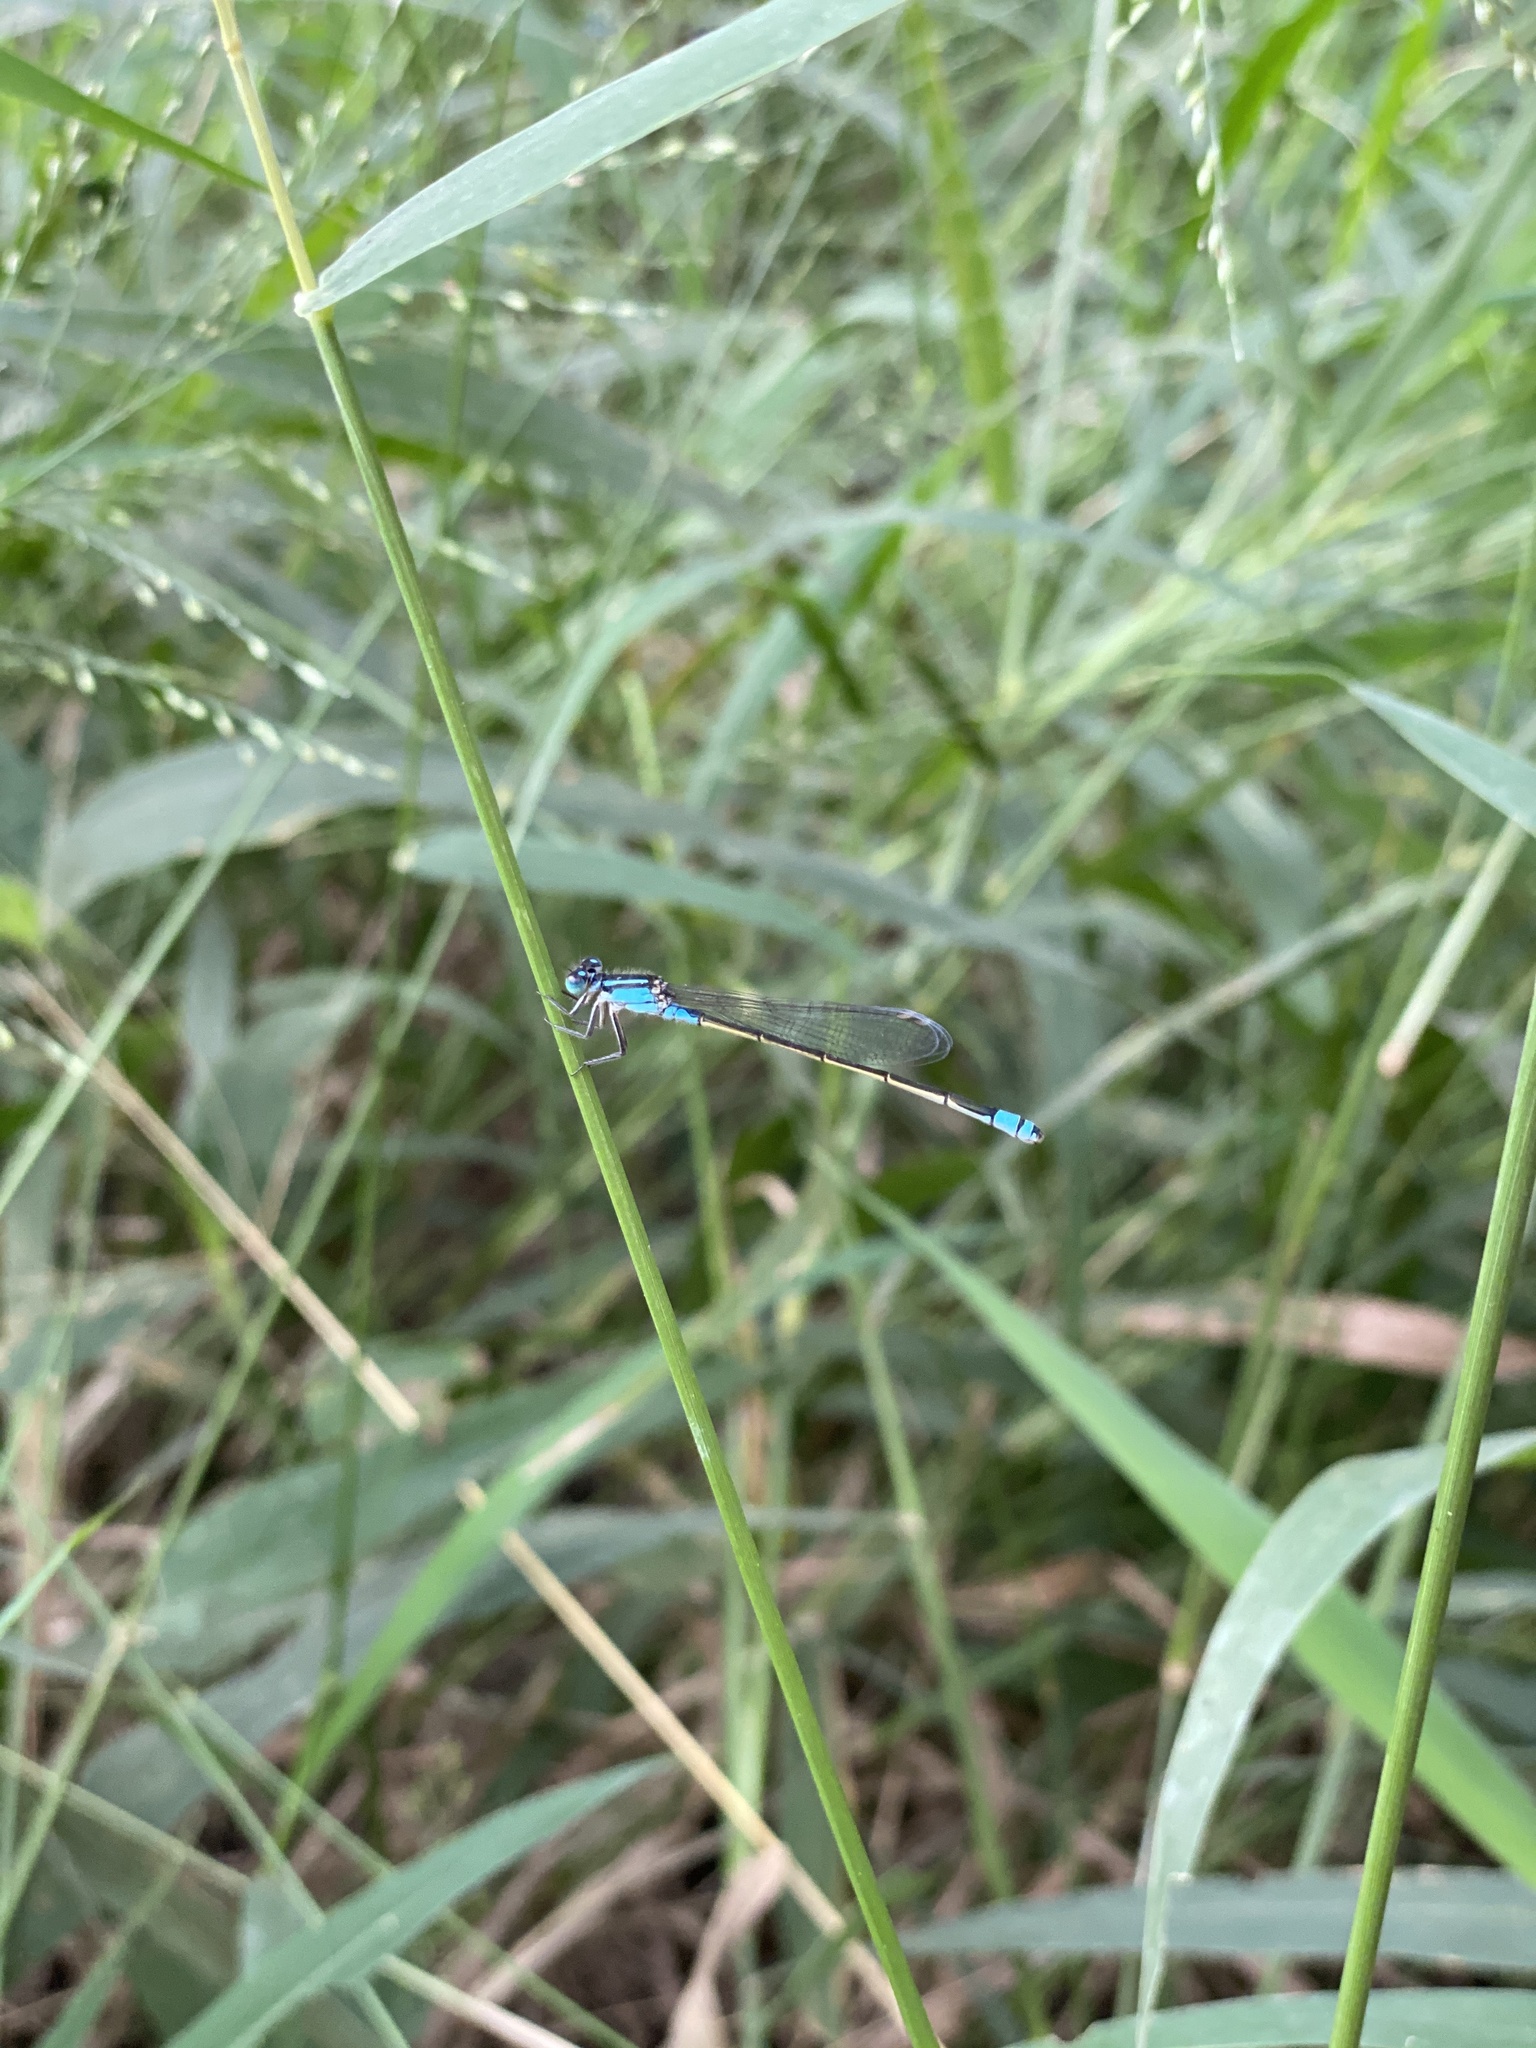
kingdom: Animalia
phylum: Arthropoda
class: Insecta
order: Odonata
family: Coenagrionidae
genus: Ischnura
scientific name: Ischnura heterosticta
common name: Common bluetail
